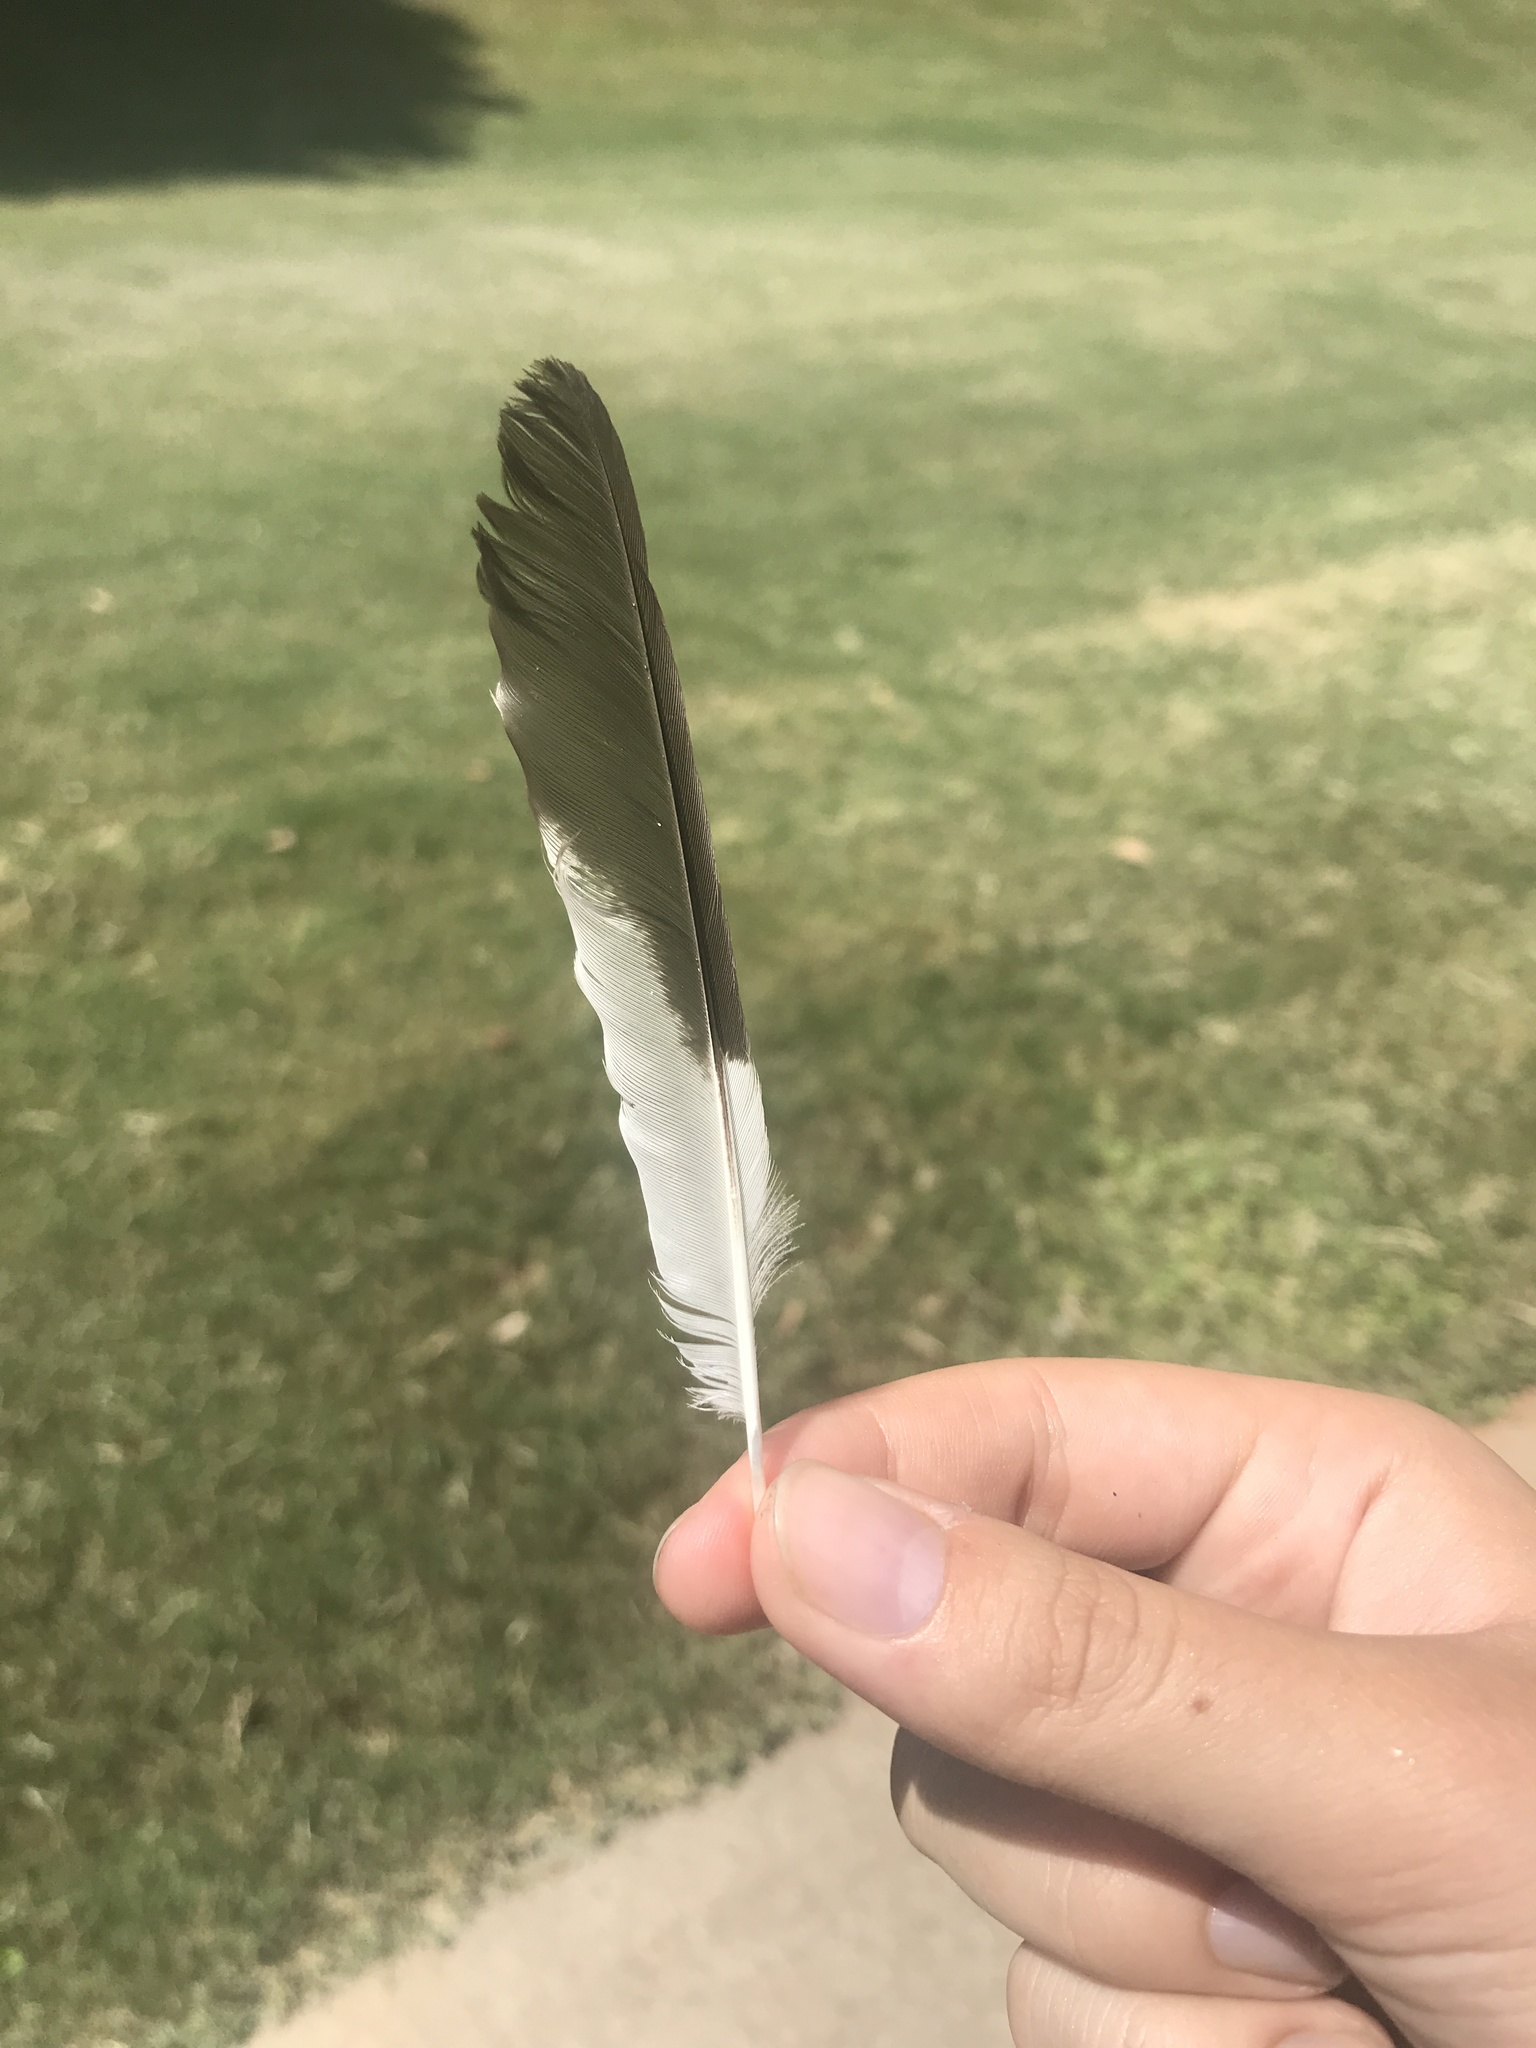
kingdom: Animalia
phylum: Chordata
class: Aves
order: Passeriformes
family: Mimidae
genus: Mimus
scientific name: Mimus polyglottos
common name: Northern mockingbird
